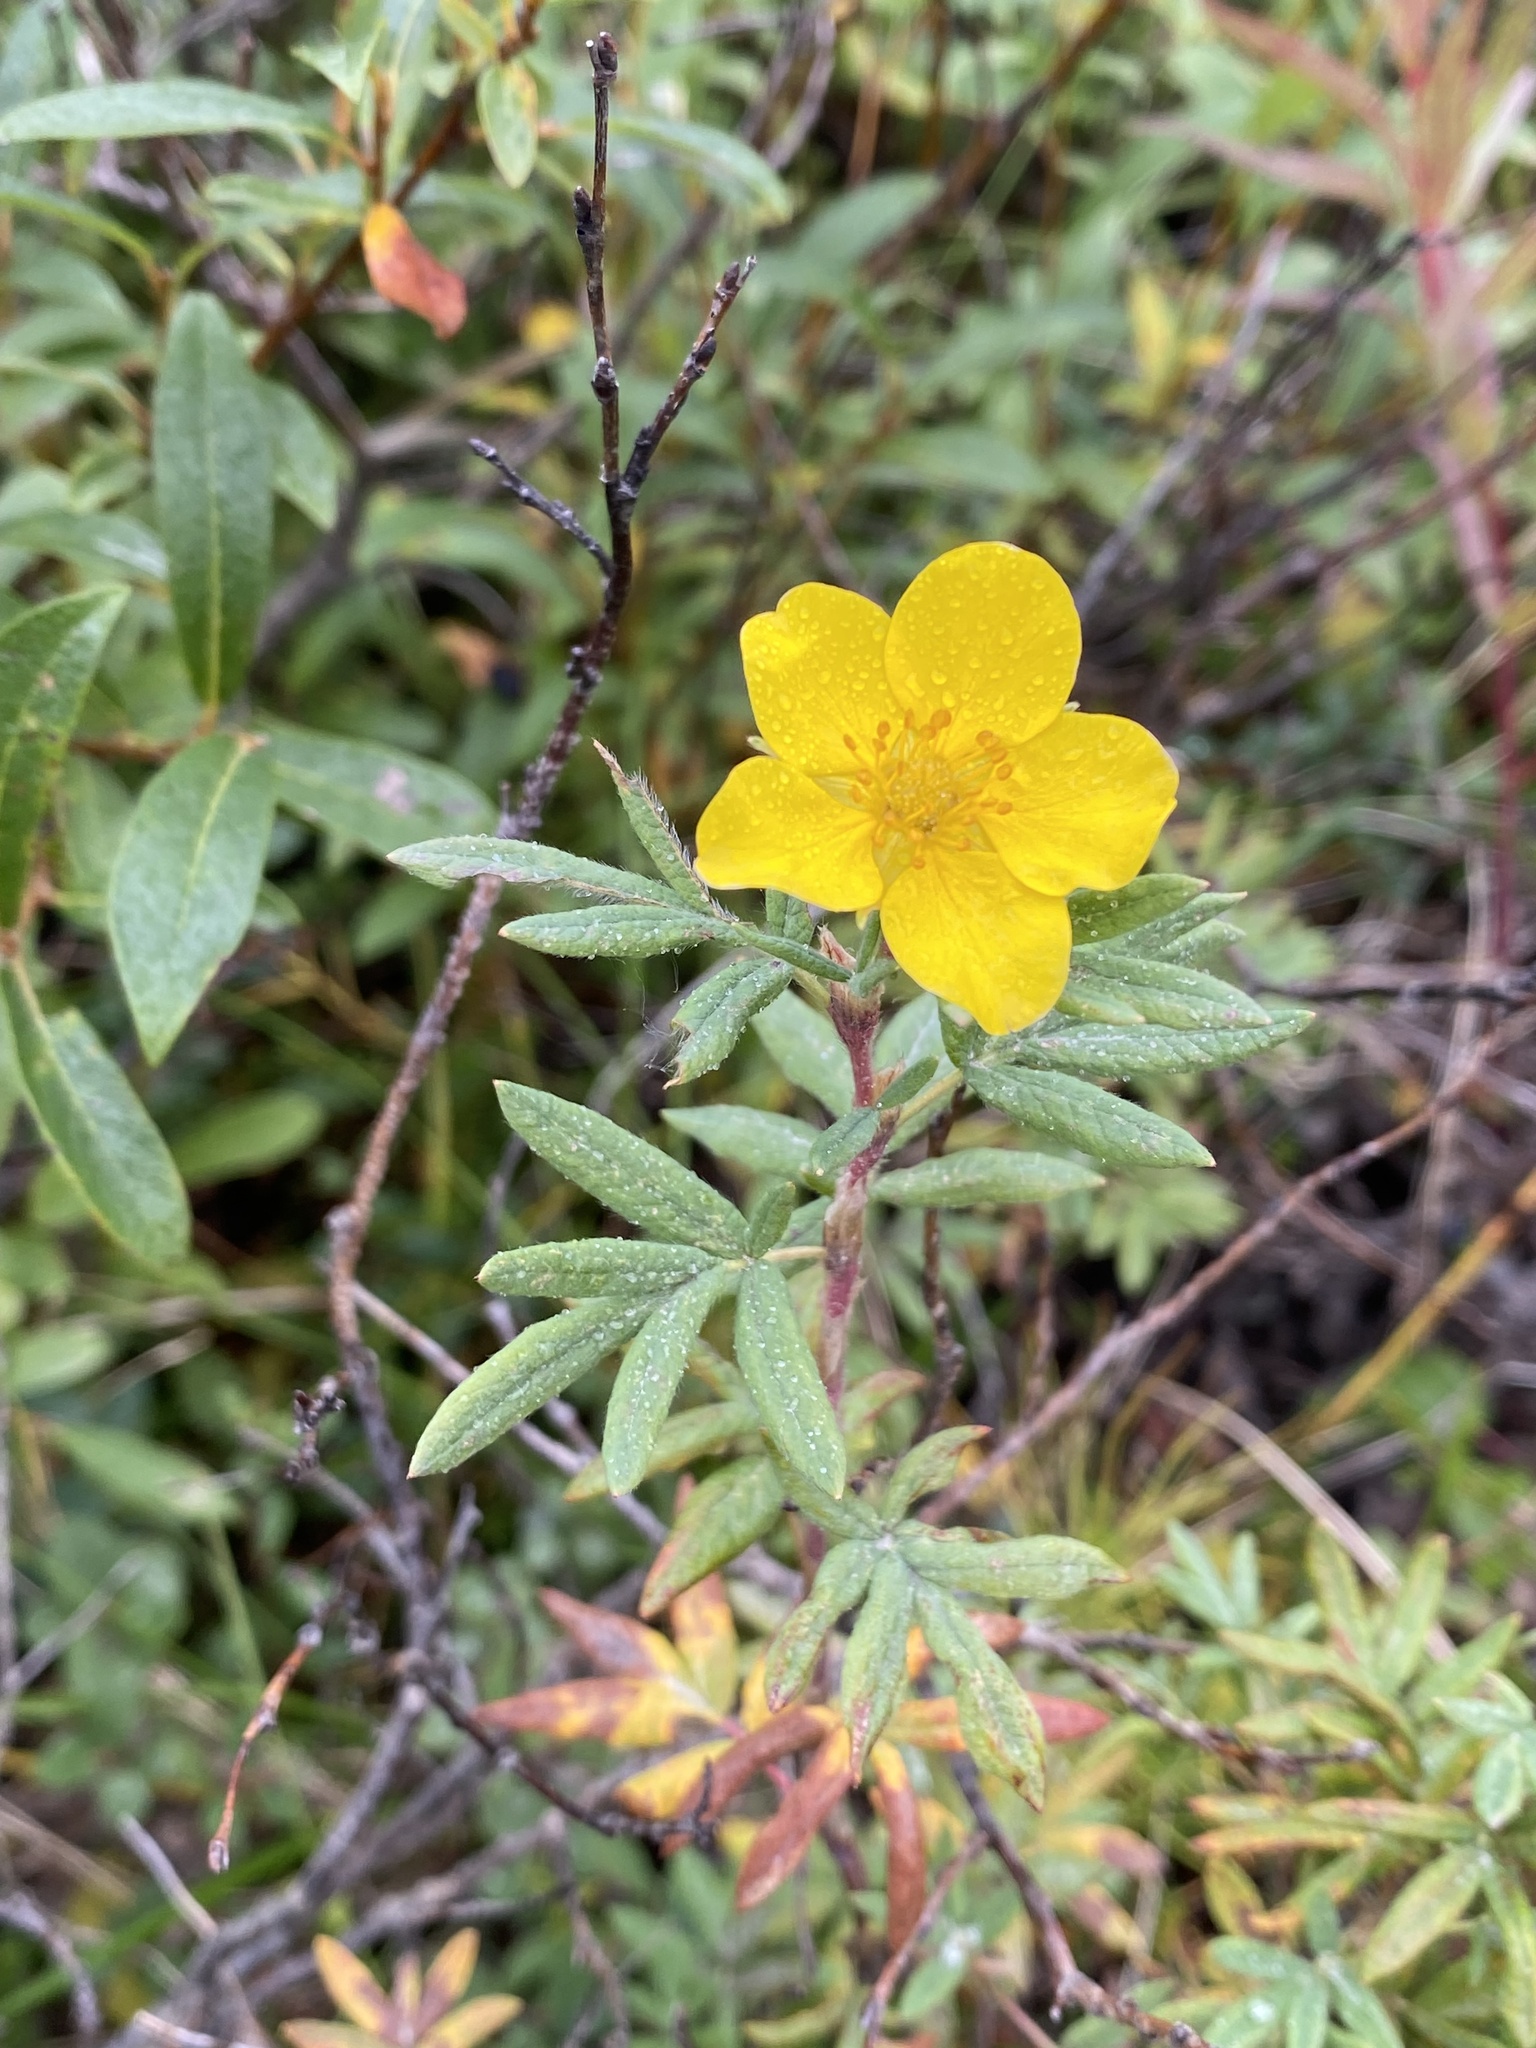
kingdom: Plantae
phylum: Tracheophyta
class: Magnoliopsida
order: Rosales
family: Rosaceae
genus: Dasiphora
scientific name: Dasiphora fruticosa
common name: Shrubby cinquefoil
